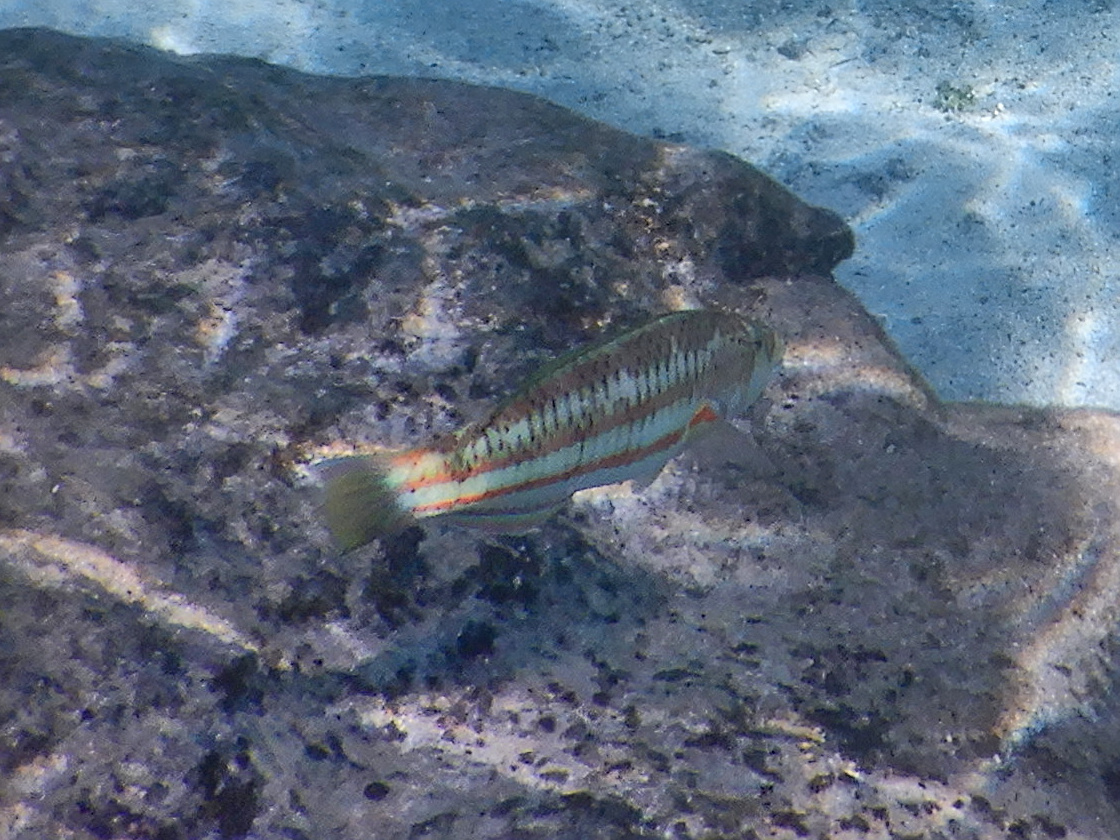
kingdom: Animalia
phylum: Chordata
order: Perciformes
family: Labridae
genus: Thalassoma
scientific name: Thalassoma purpureum
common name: Parrotfish
